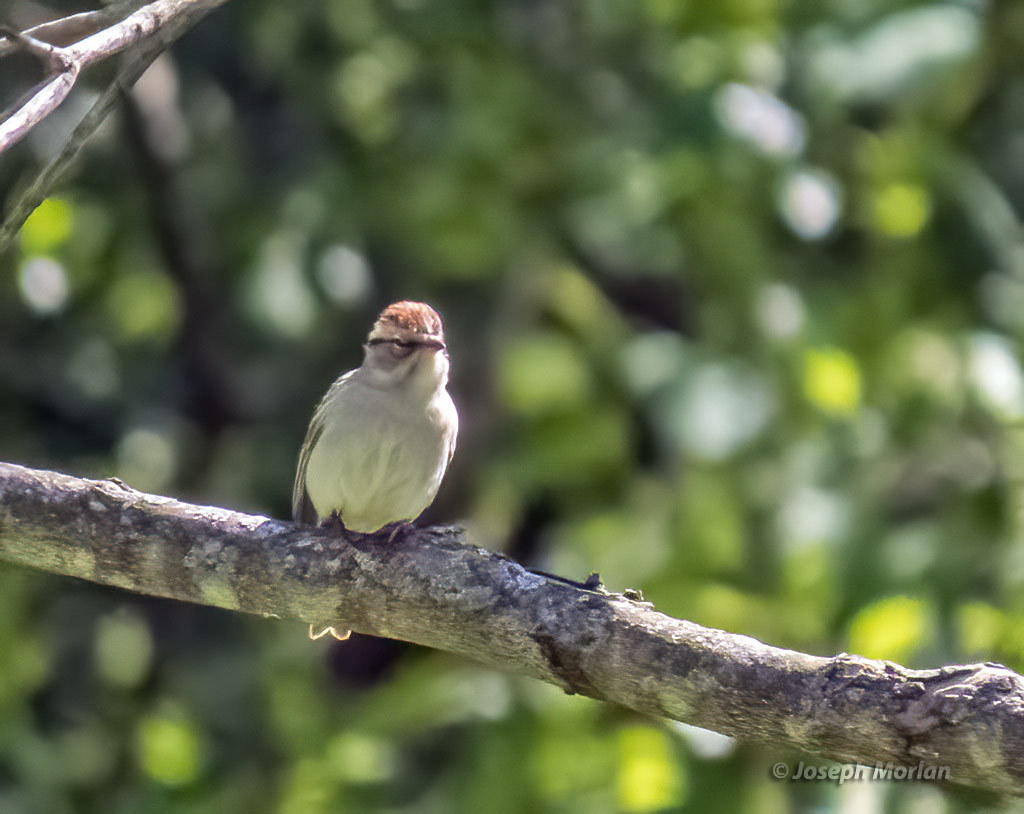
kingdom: Animalia
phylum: Chordata
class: Aves
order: Passeriformes
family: Passerellidae
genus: Spizella
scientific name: Spizella passerina
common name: Chipping sparrow
